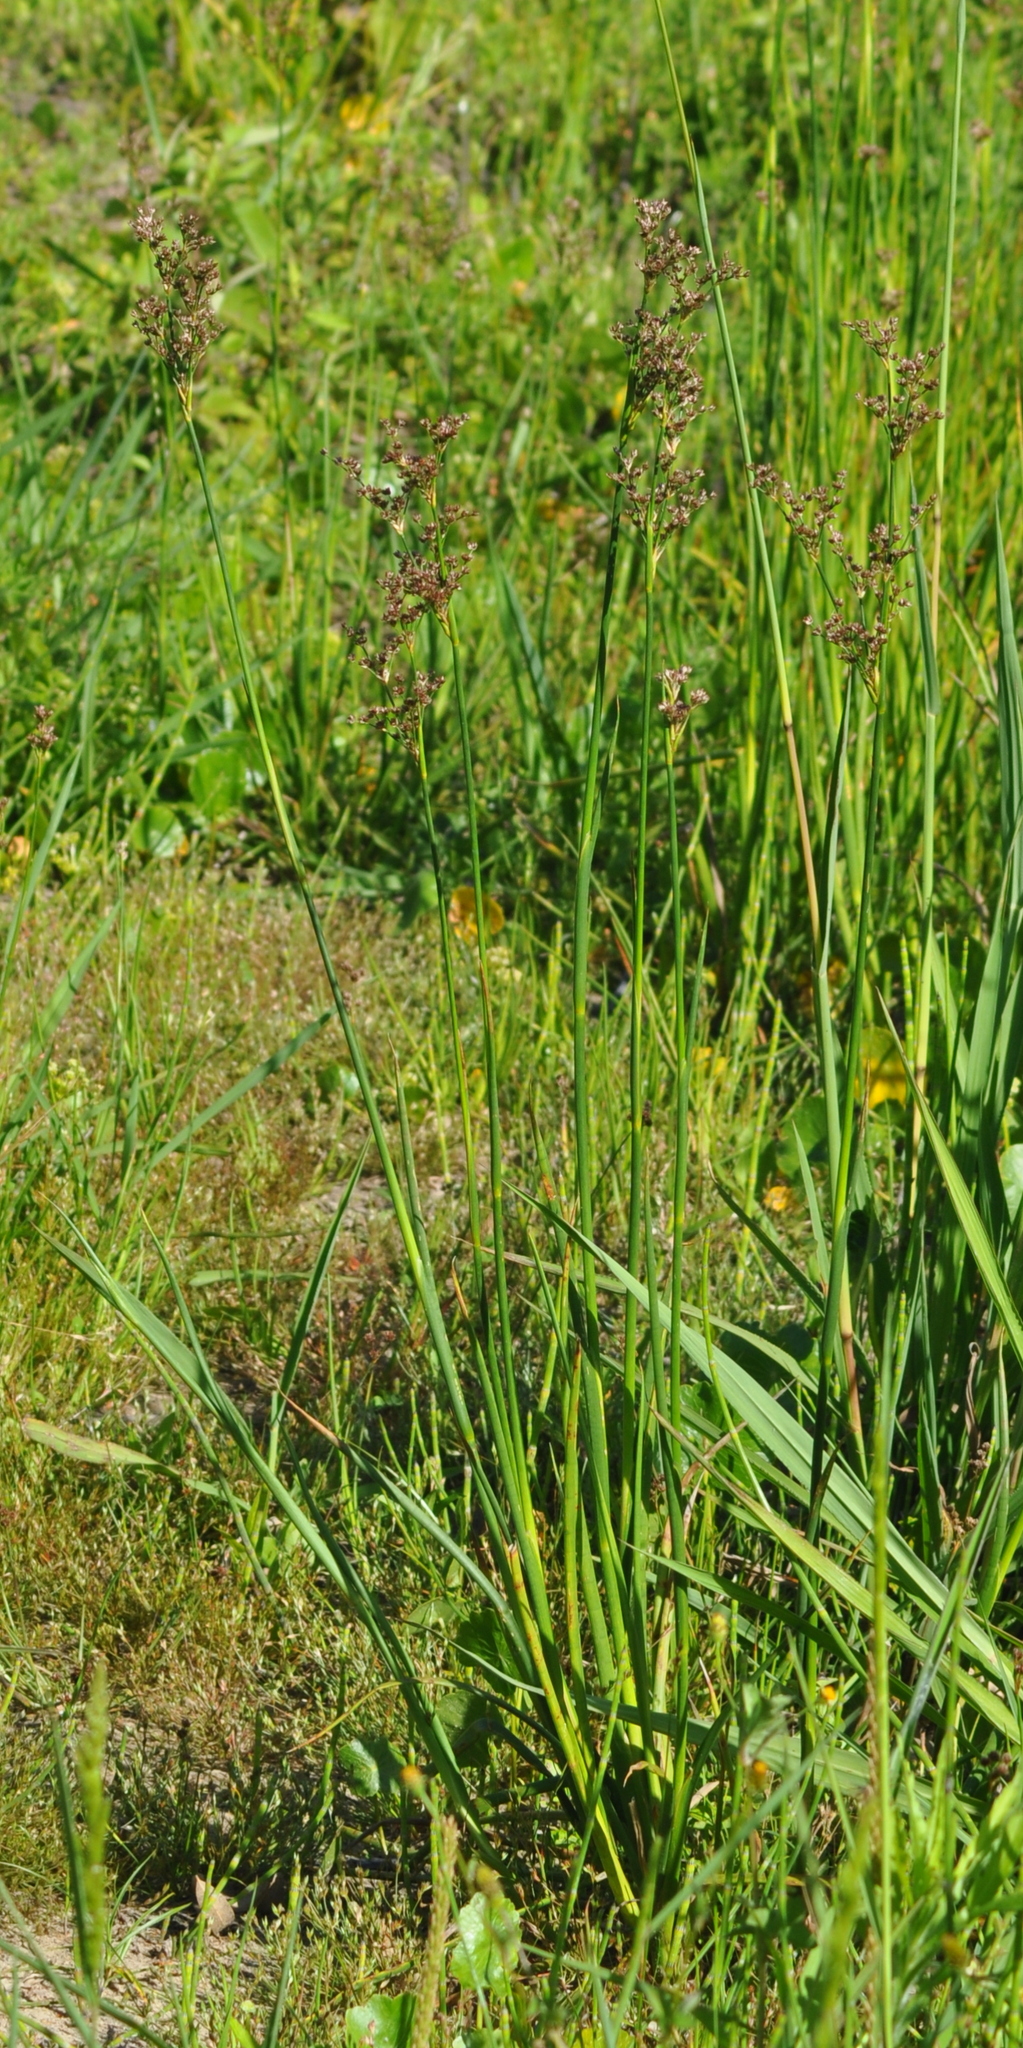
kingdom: Plantae
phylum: Tracheophyta
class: Liliopsida
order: Poales
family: Juncaceae
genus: Juncus
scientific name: Juncus microcephalus
